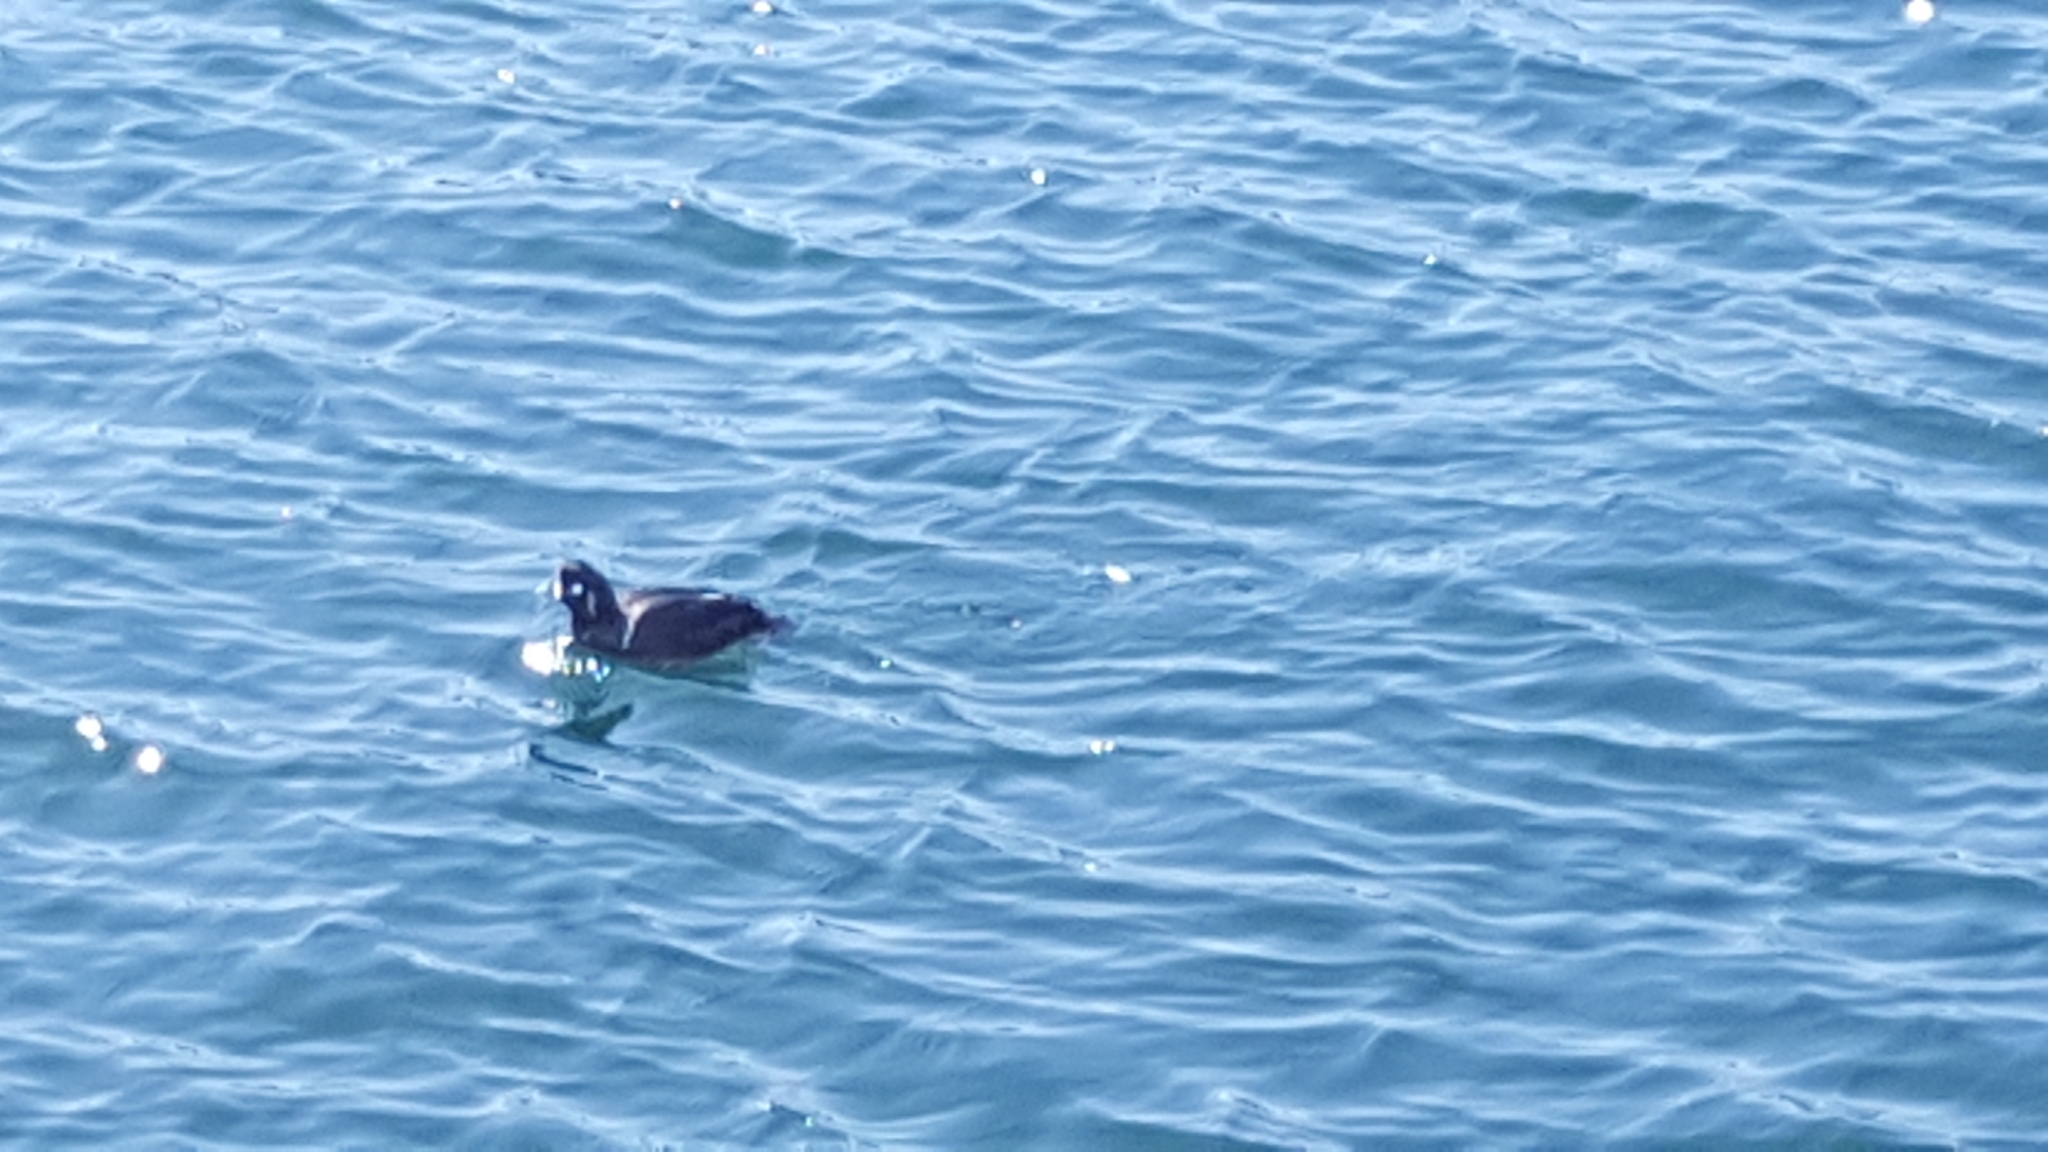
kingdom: Animalia
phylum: Chordata
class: Aves
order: Anseriformes
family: Anatidae
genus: Histrionicus
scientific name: Histrionicus histrionicus
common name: Harlequin duck
